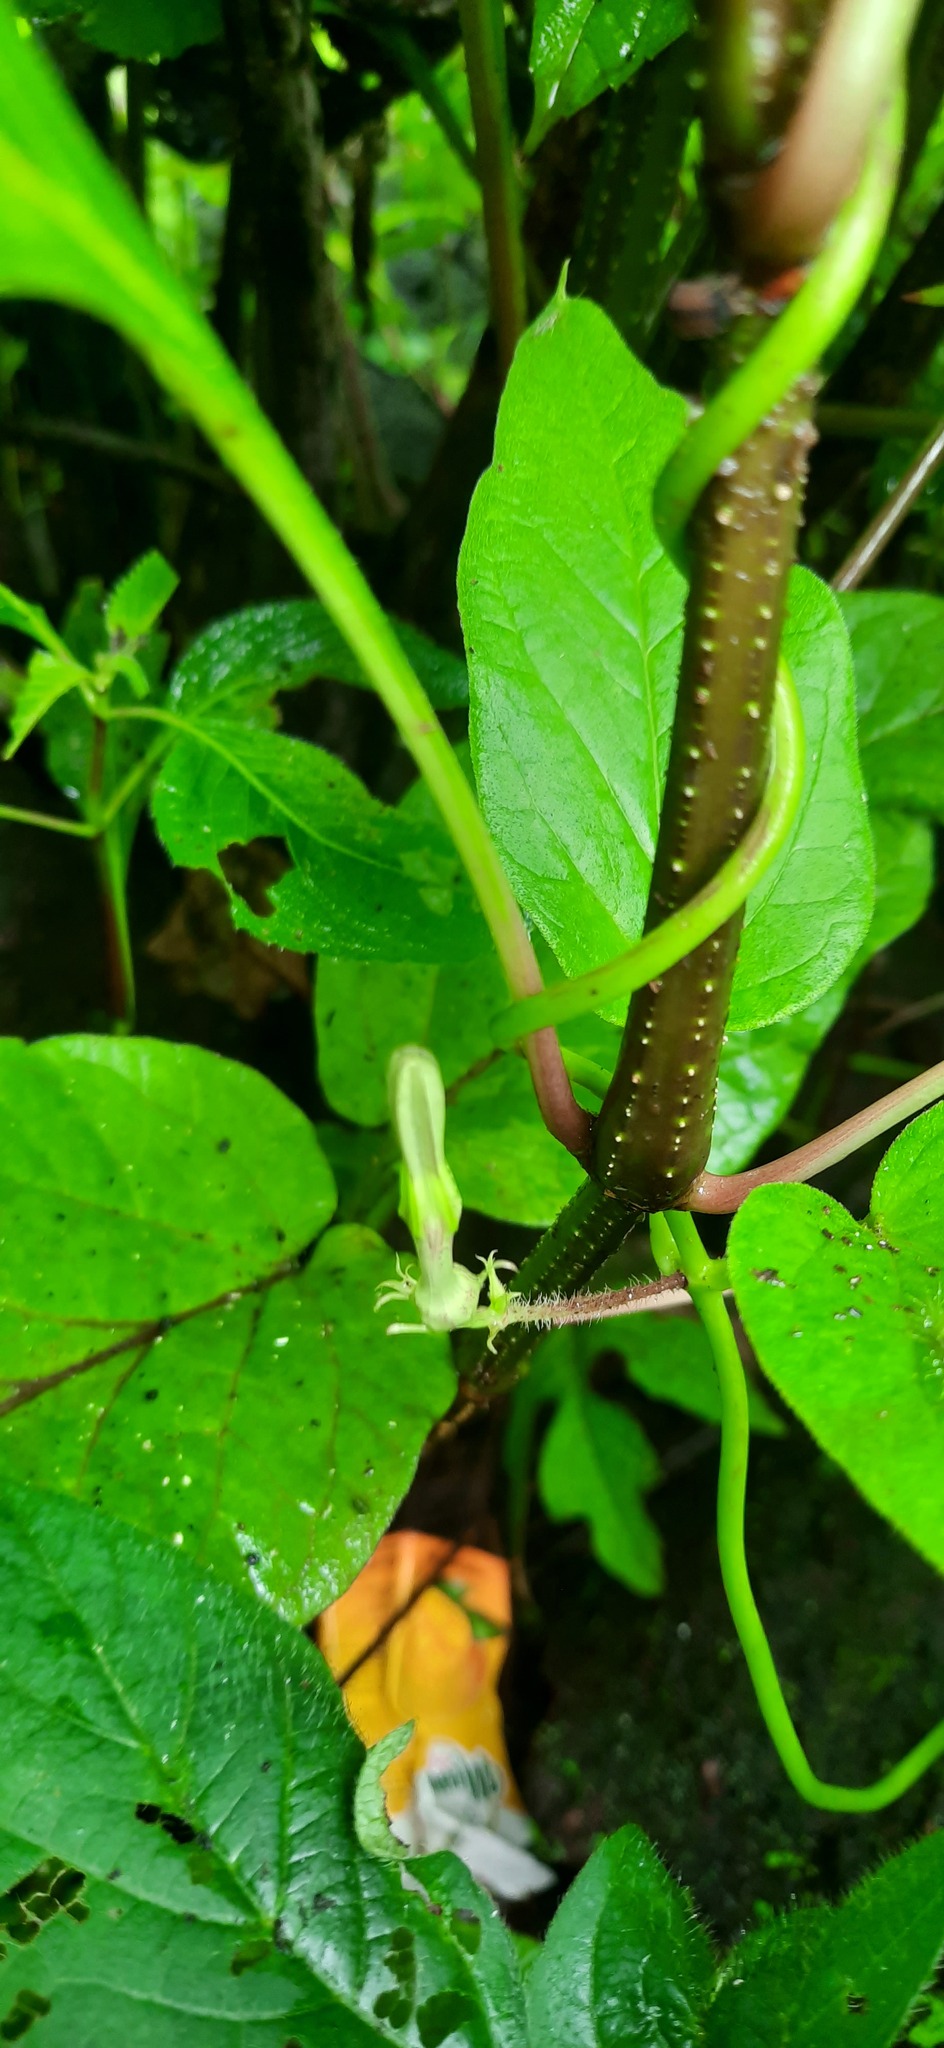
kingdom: Plantae
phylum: Tracheophyta
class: Magnoliopsida
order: Gentianales
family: Apocynaceae
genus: Ceropegia
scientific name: Ceropegia vincifolia
